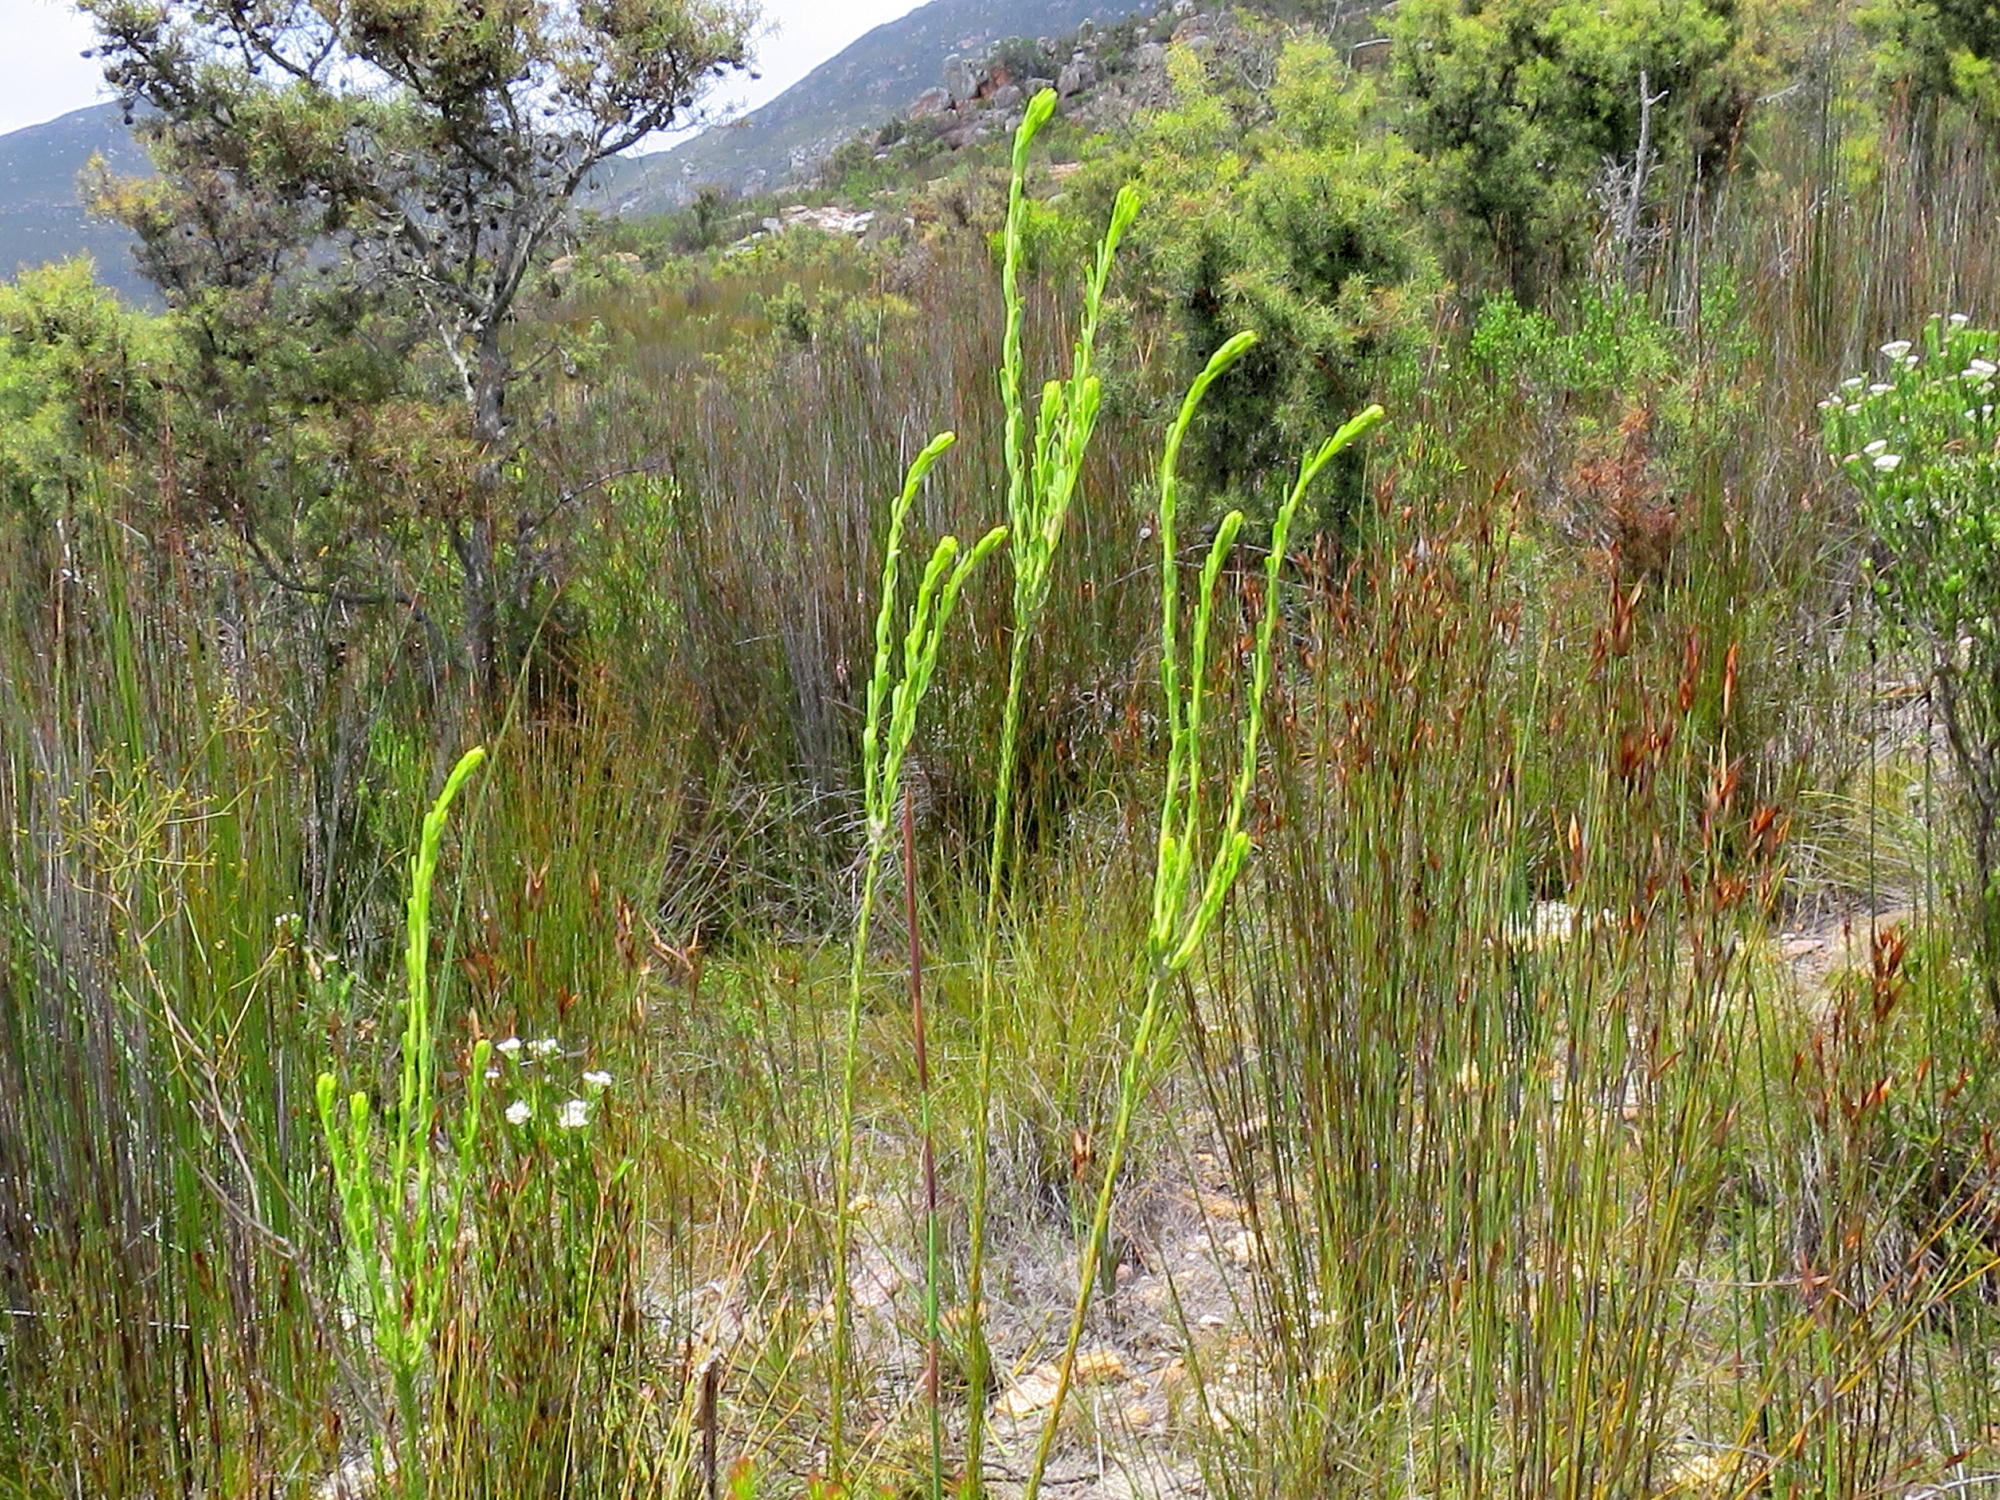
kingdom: Plantae
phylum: Tracheophyta
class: Magnoliopsida
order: Proteales
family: Proteaceae
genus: Leucadendron
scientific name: Leucadendron ericifolium
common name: Erica-leaved conebush
